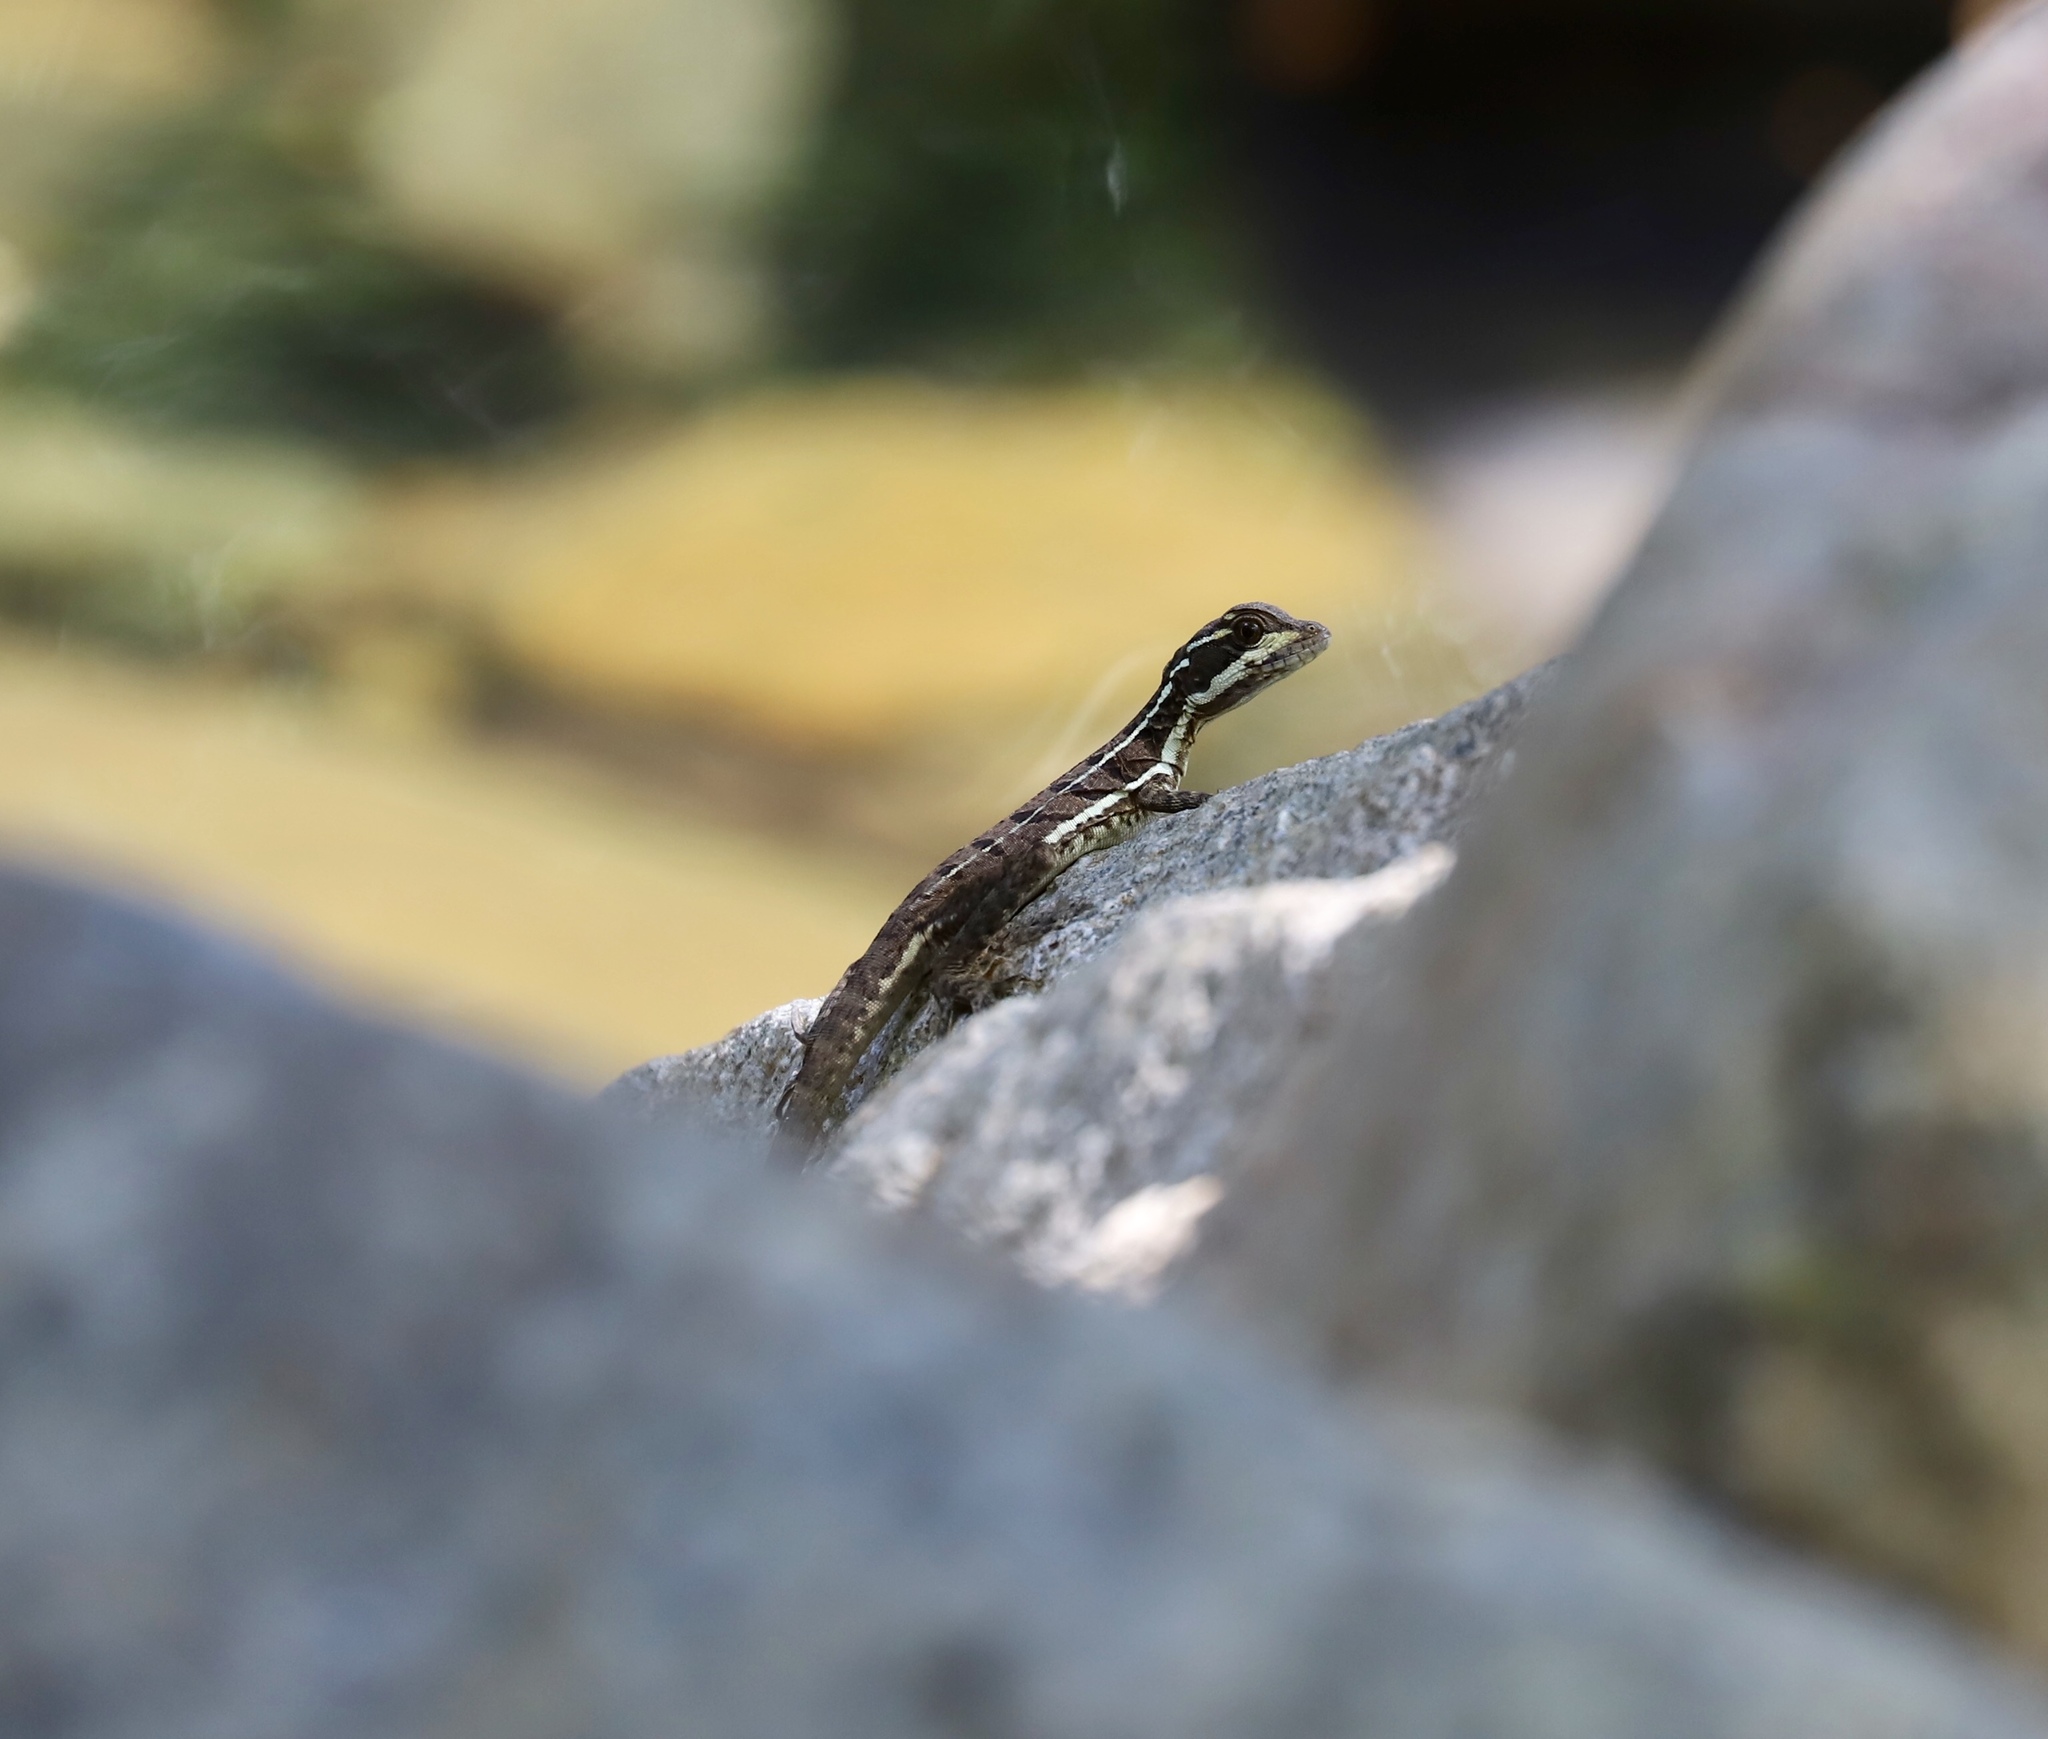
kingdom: Animalia
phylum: Chordata
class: Squamata
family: Corytophanidae
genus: Basiliscus
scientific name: Basiliscus basiliscus
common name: Common basilisk
